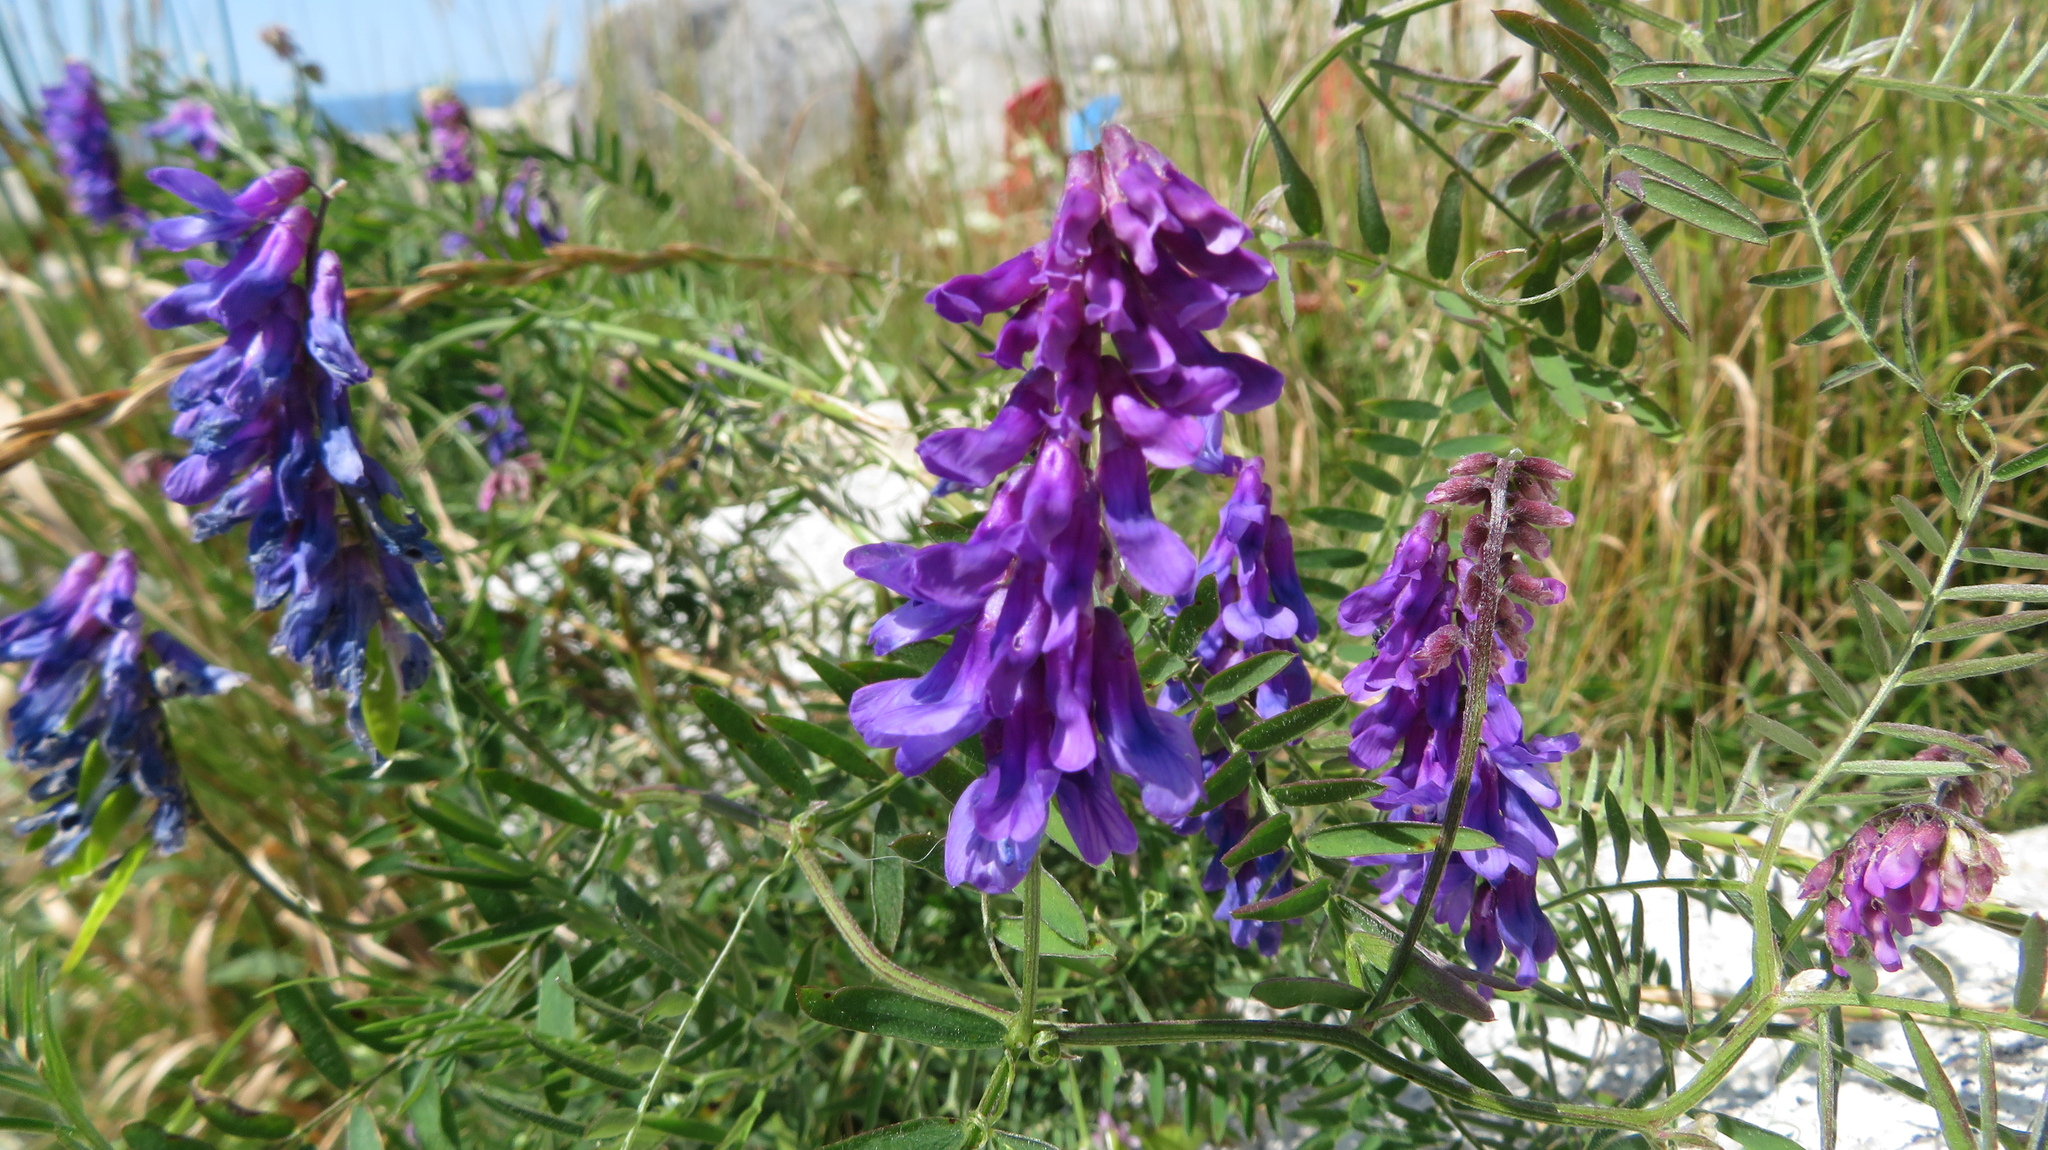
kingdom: Plantae
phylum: Tracheophyta
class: Magnoliopsida
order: Fabales
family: Fabaceae
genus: Vicia
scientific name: Vicia cracca
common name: Bird vetch
